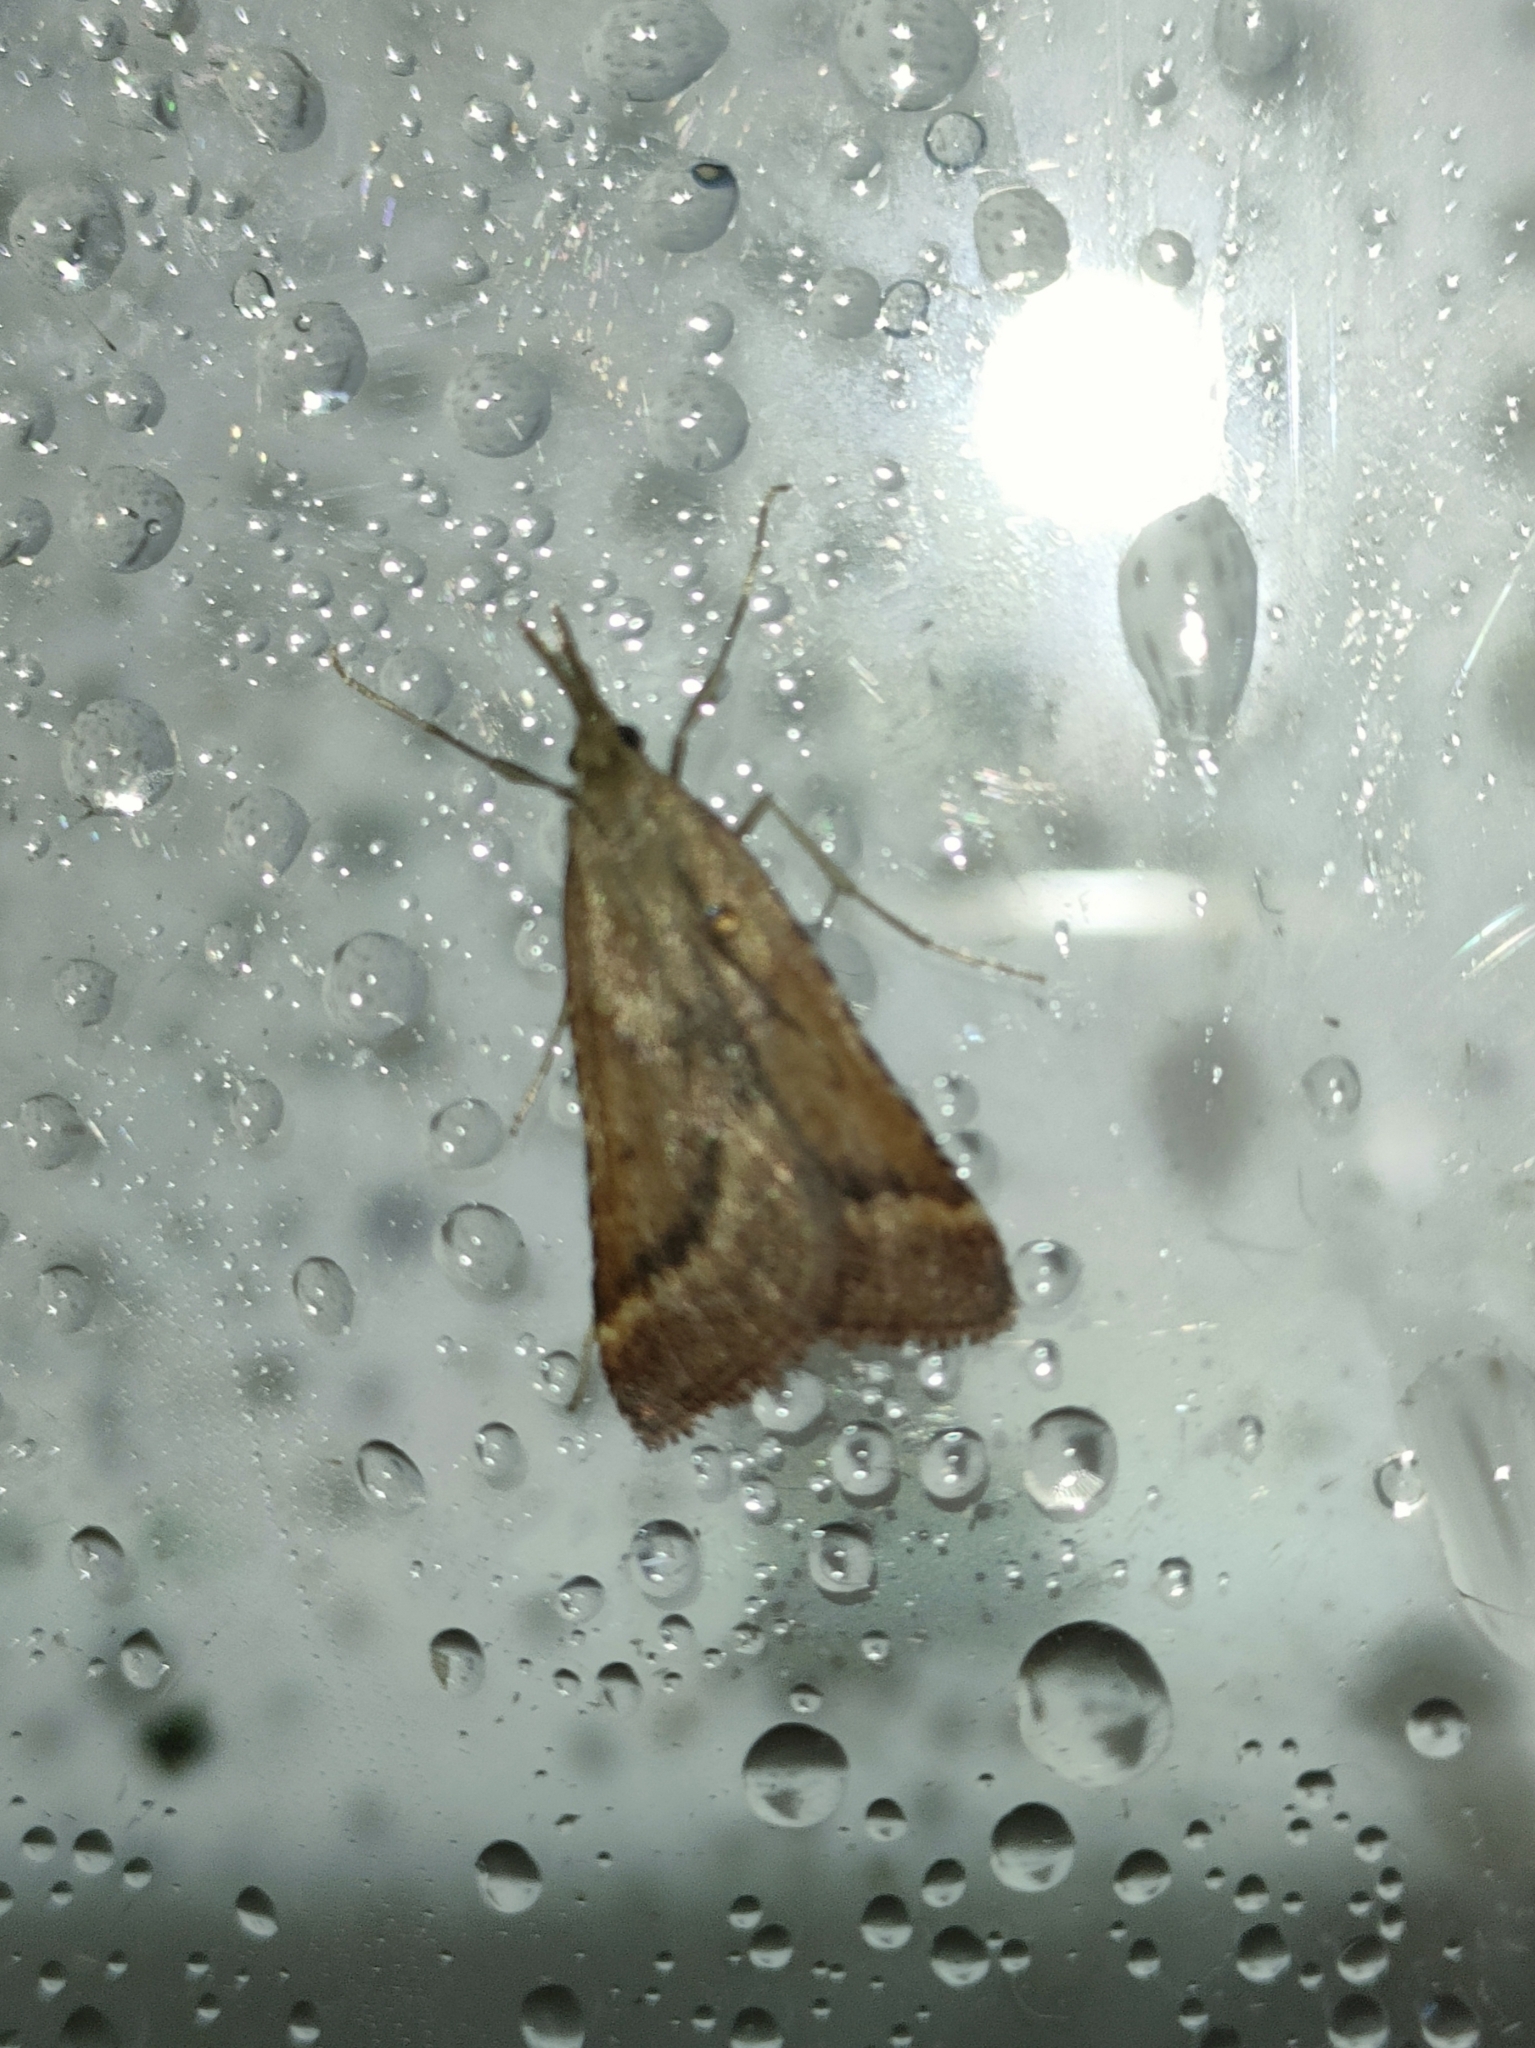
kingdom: Animalia
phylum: Arthropoda
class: Insecta
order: Lepidoptera
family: Pyralidae
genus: Synaphe
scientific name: Synaphe punctalis
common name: Long-legged tabby
